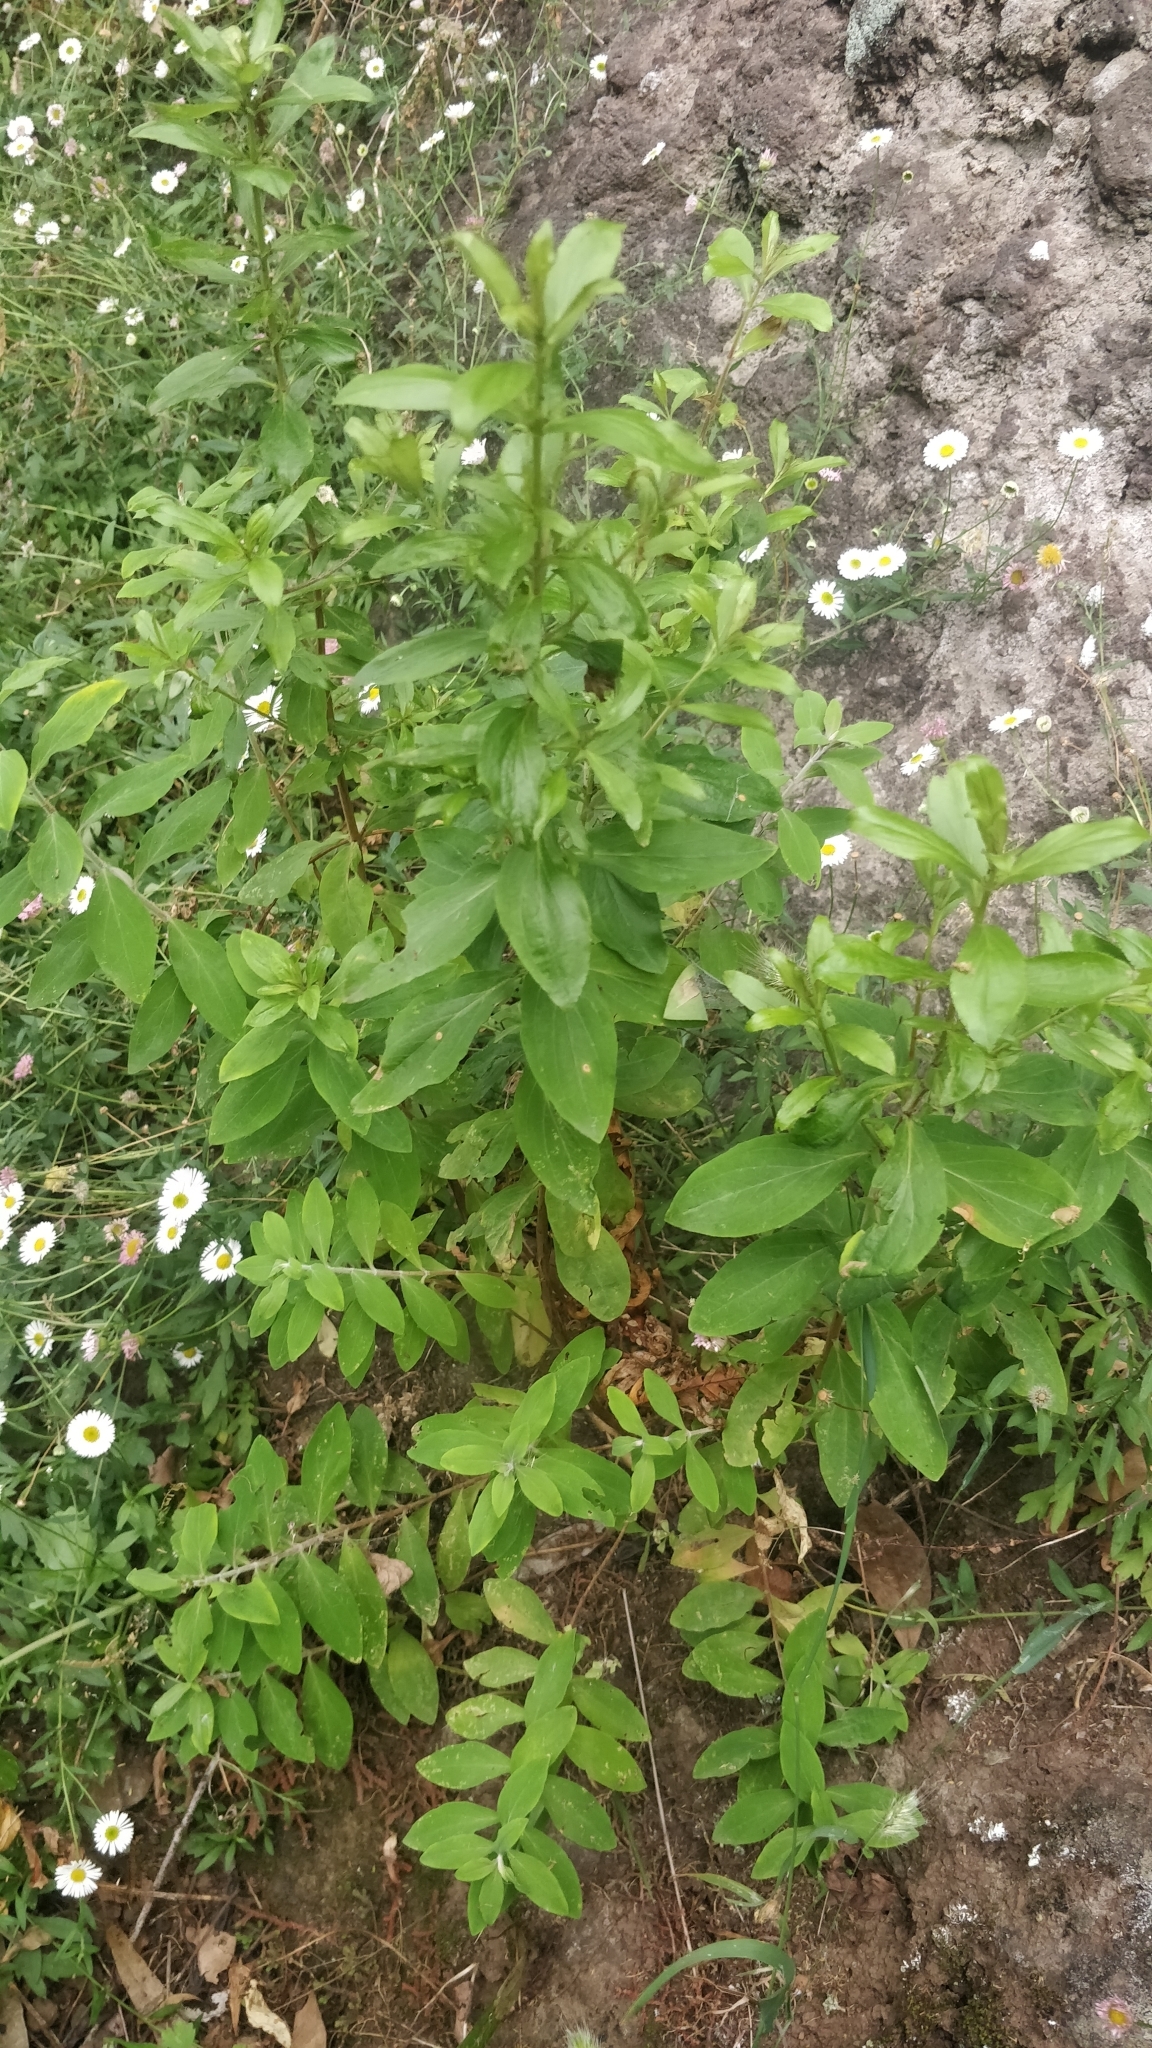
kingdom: Plantae
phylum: Tracheophyta
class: Magnoliopsida
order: Malpighiales
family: Hypericaceae
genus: Hypericum
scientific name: Hypericum glandulosum
